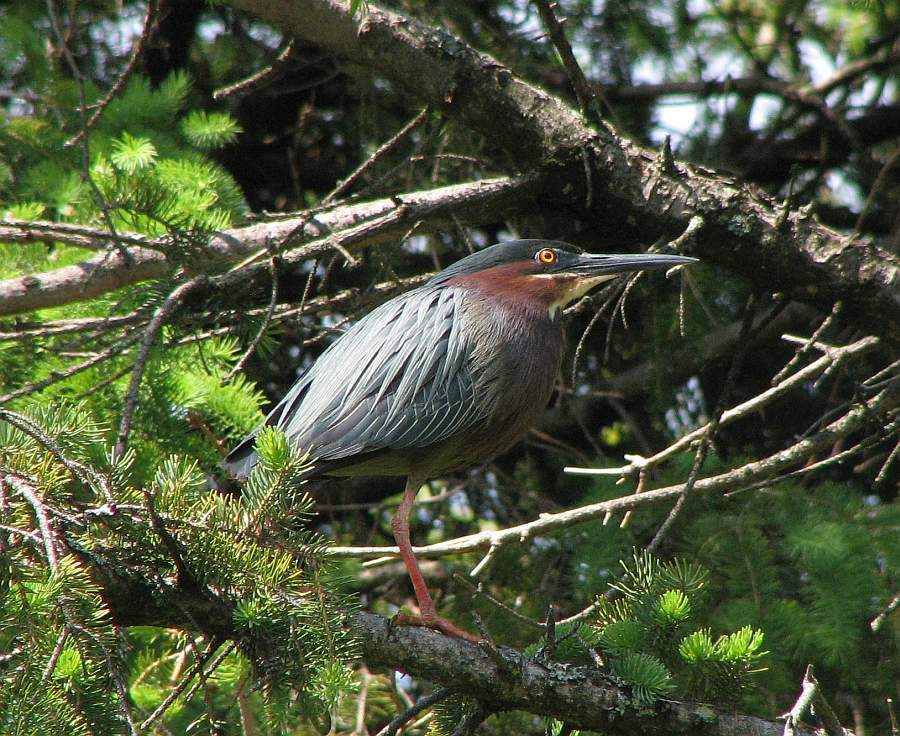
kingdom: Animalia
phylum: Chordata
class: Aves
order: Pelecaniformes
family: Ardeidae
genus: Butorides
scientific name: Butorides virescens
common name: Green heron
